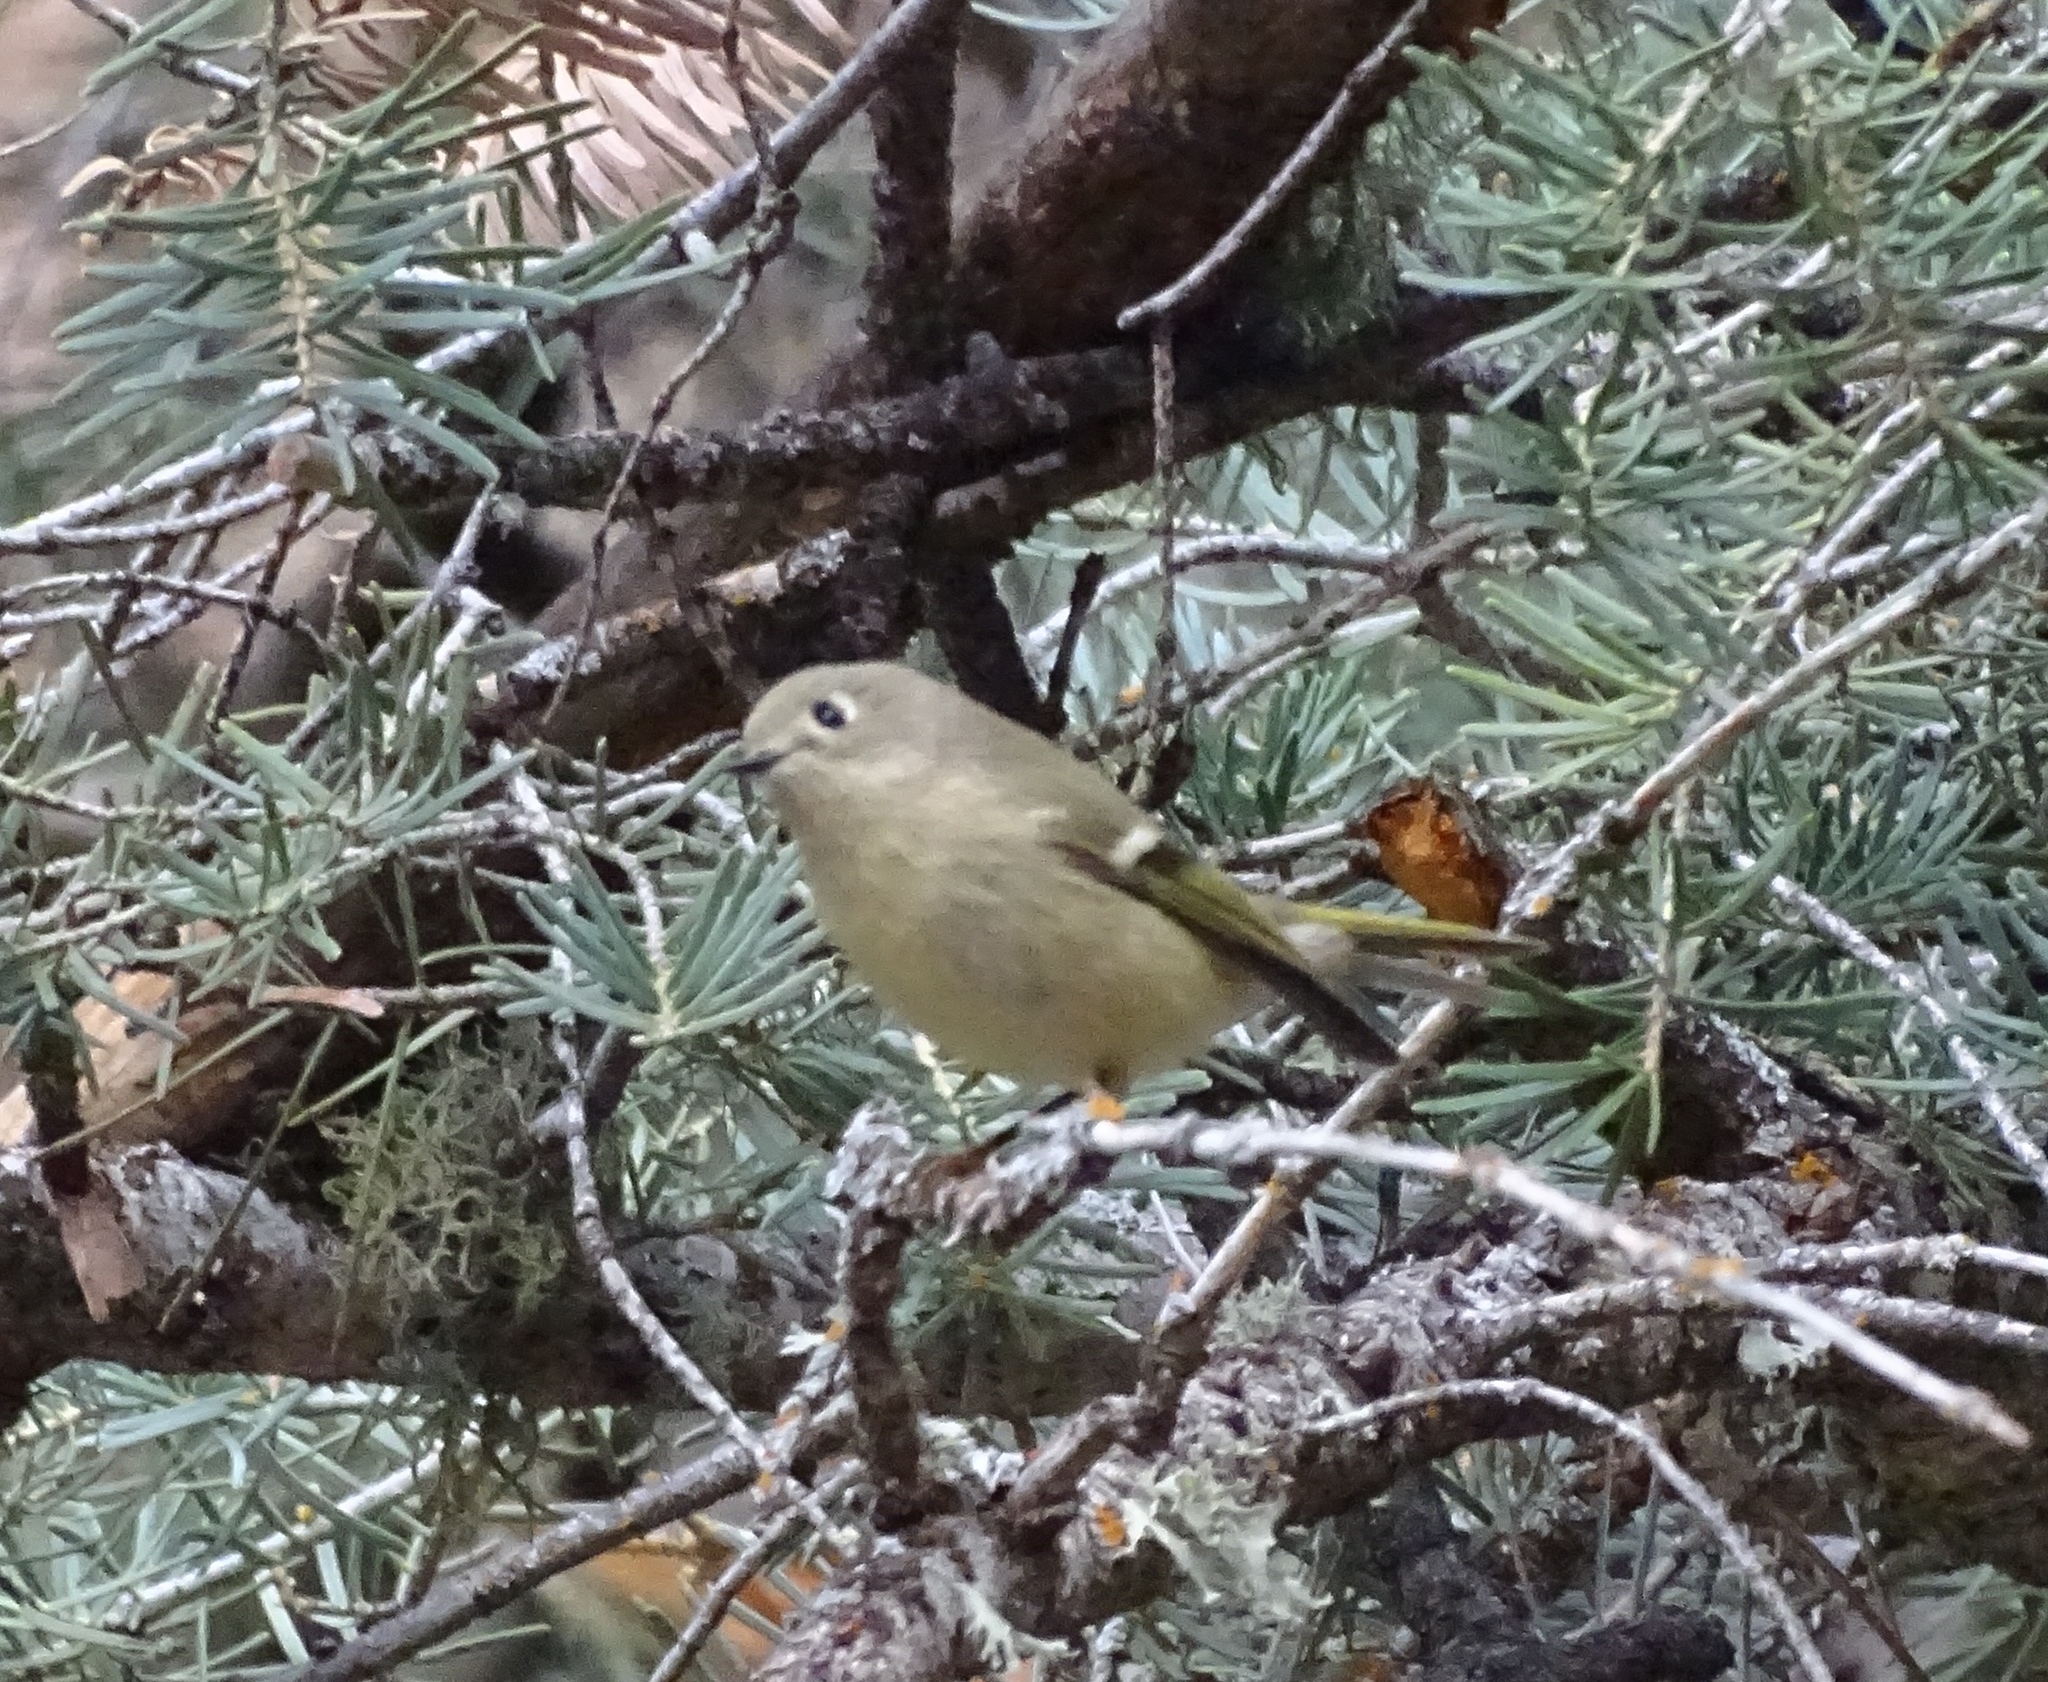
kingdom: Animalia
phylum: Chordata
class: Aves
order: Passeriformes
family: Regulidae
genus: Regulus
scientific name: Regulus calendula
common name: Ruby-crowned kinglet
